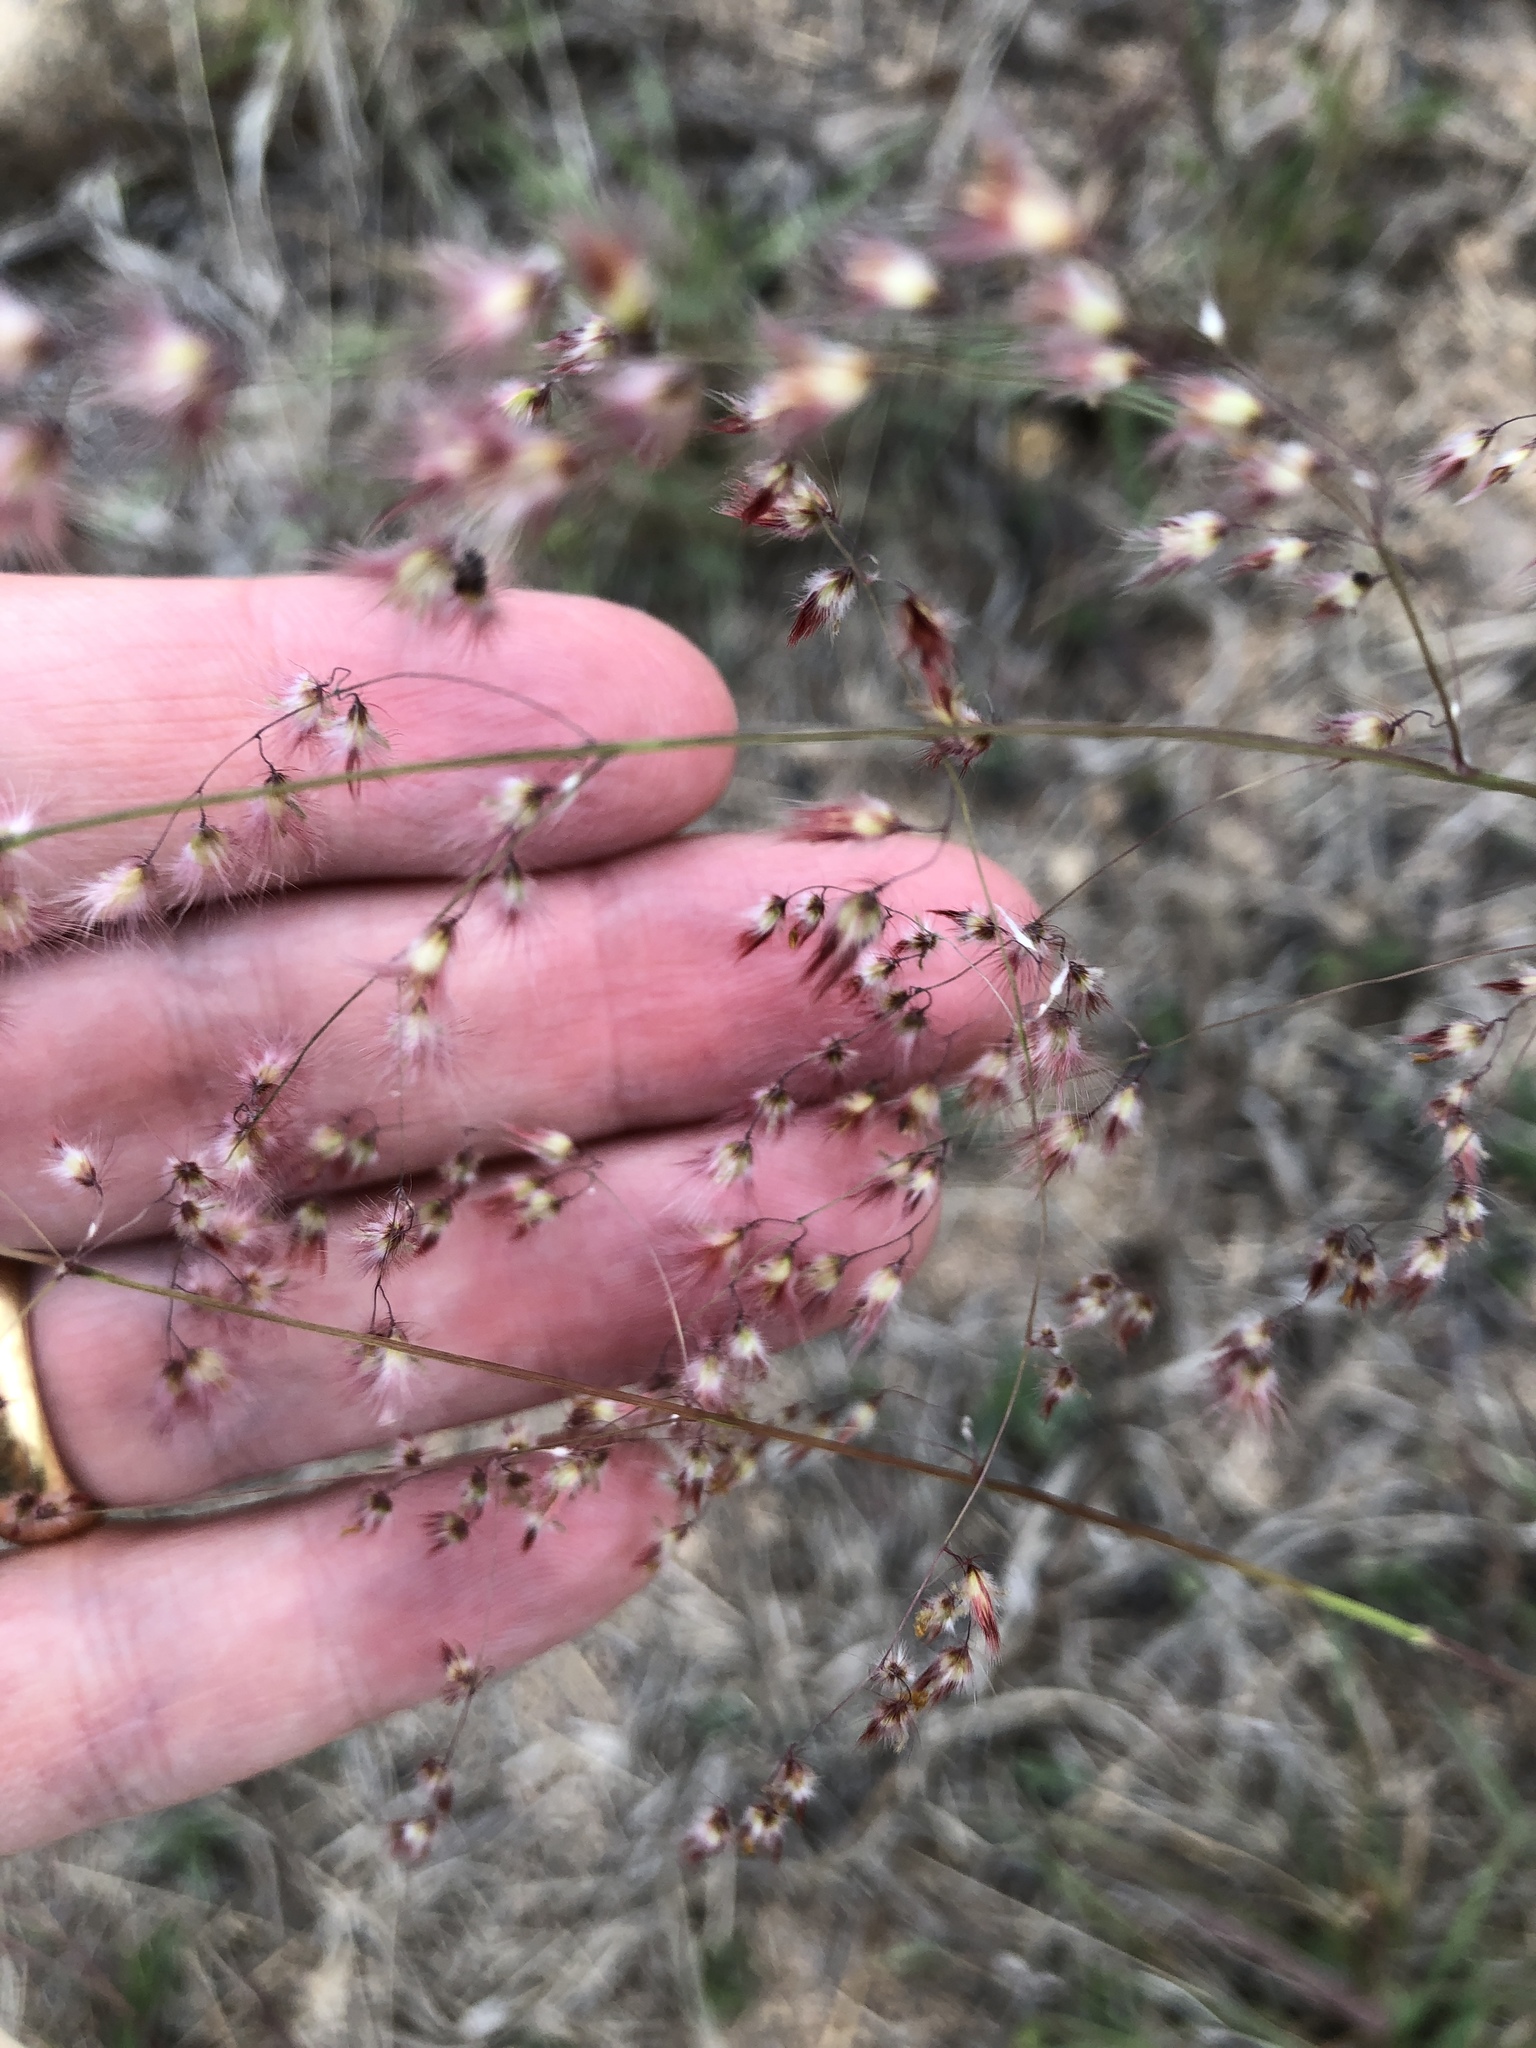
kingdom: Plantae
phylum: Tracheophyta
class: Liliopsida
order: Poales
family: Poaceae
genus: Melinis
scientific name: Melinis repens
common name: Rose natal grass
